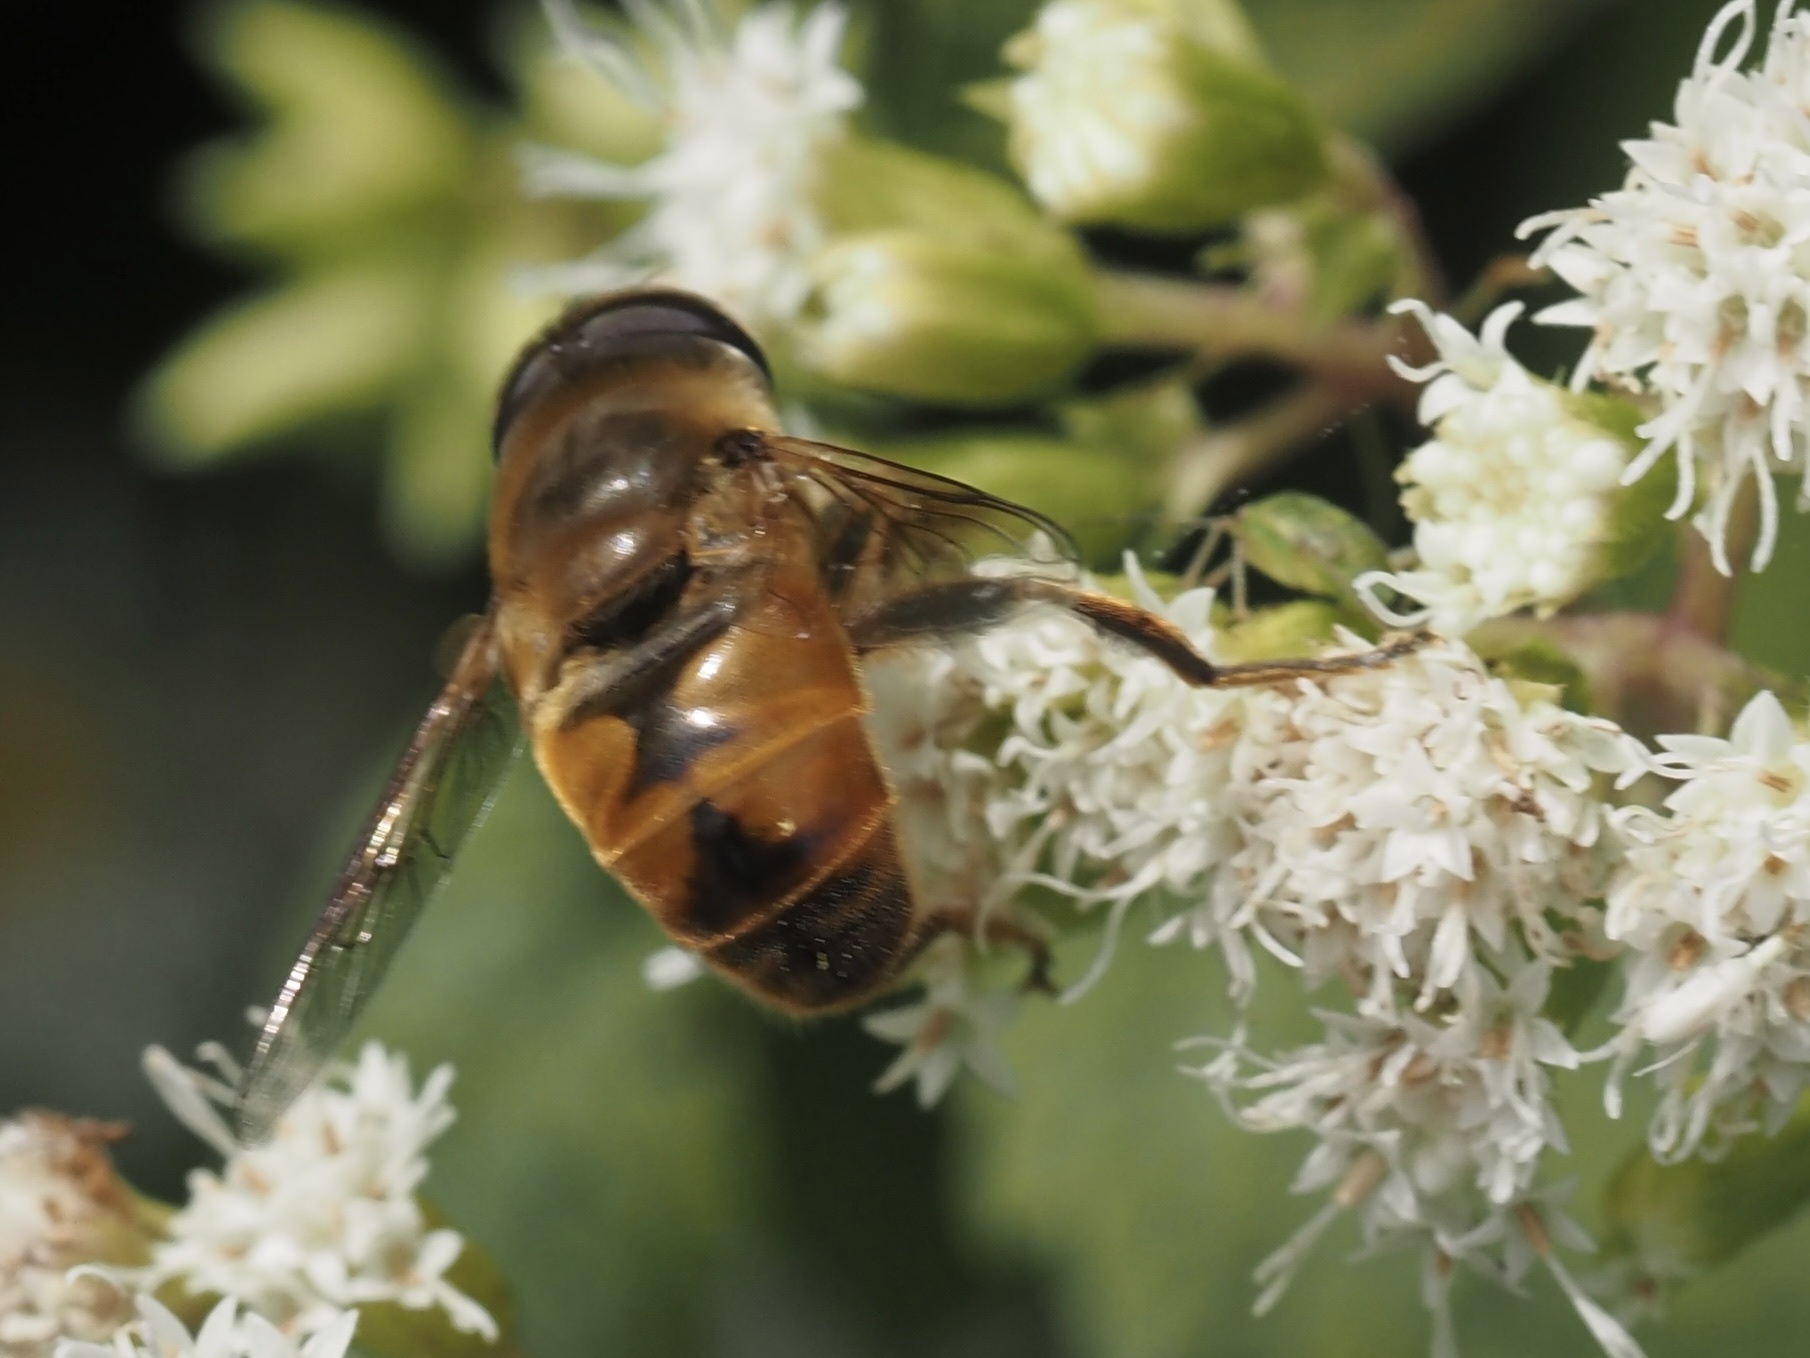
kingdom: Animalia
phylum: Arthropoda
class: Insecta
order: Diptera
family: Syrphidae
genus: Eristalis
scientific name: Eristalis tenax
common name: Drone fly
